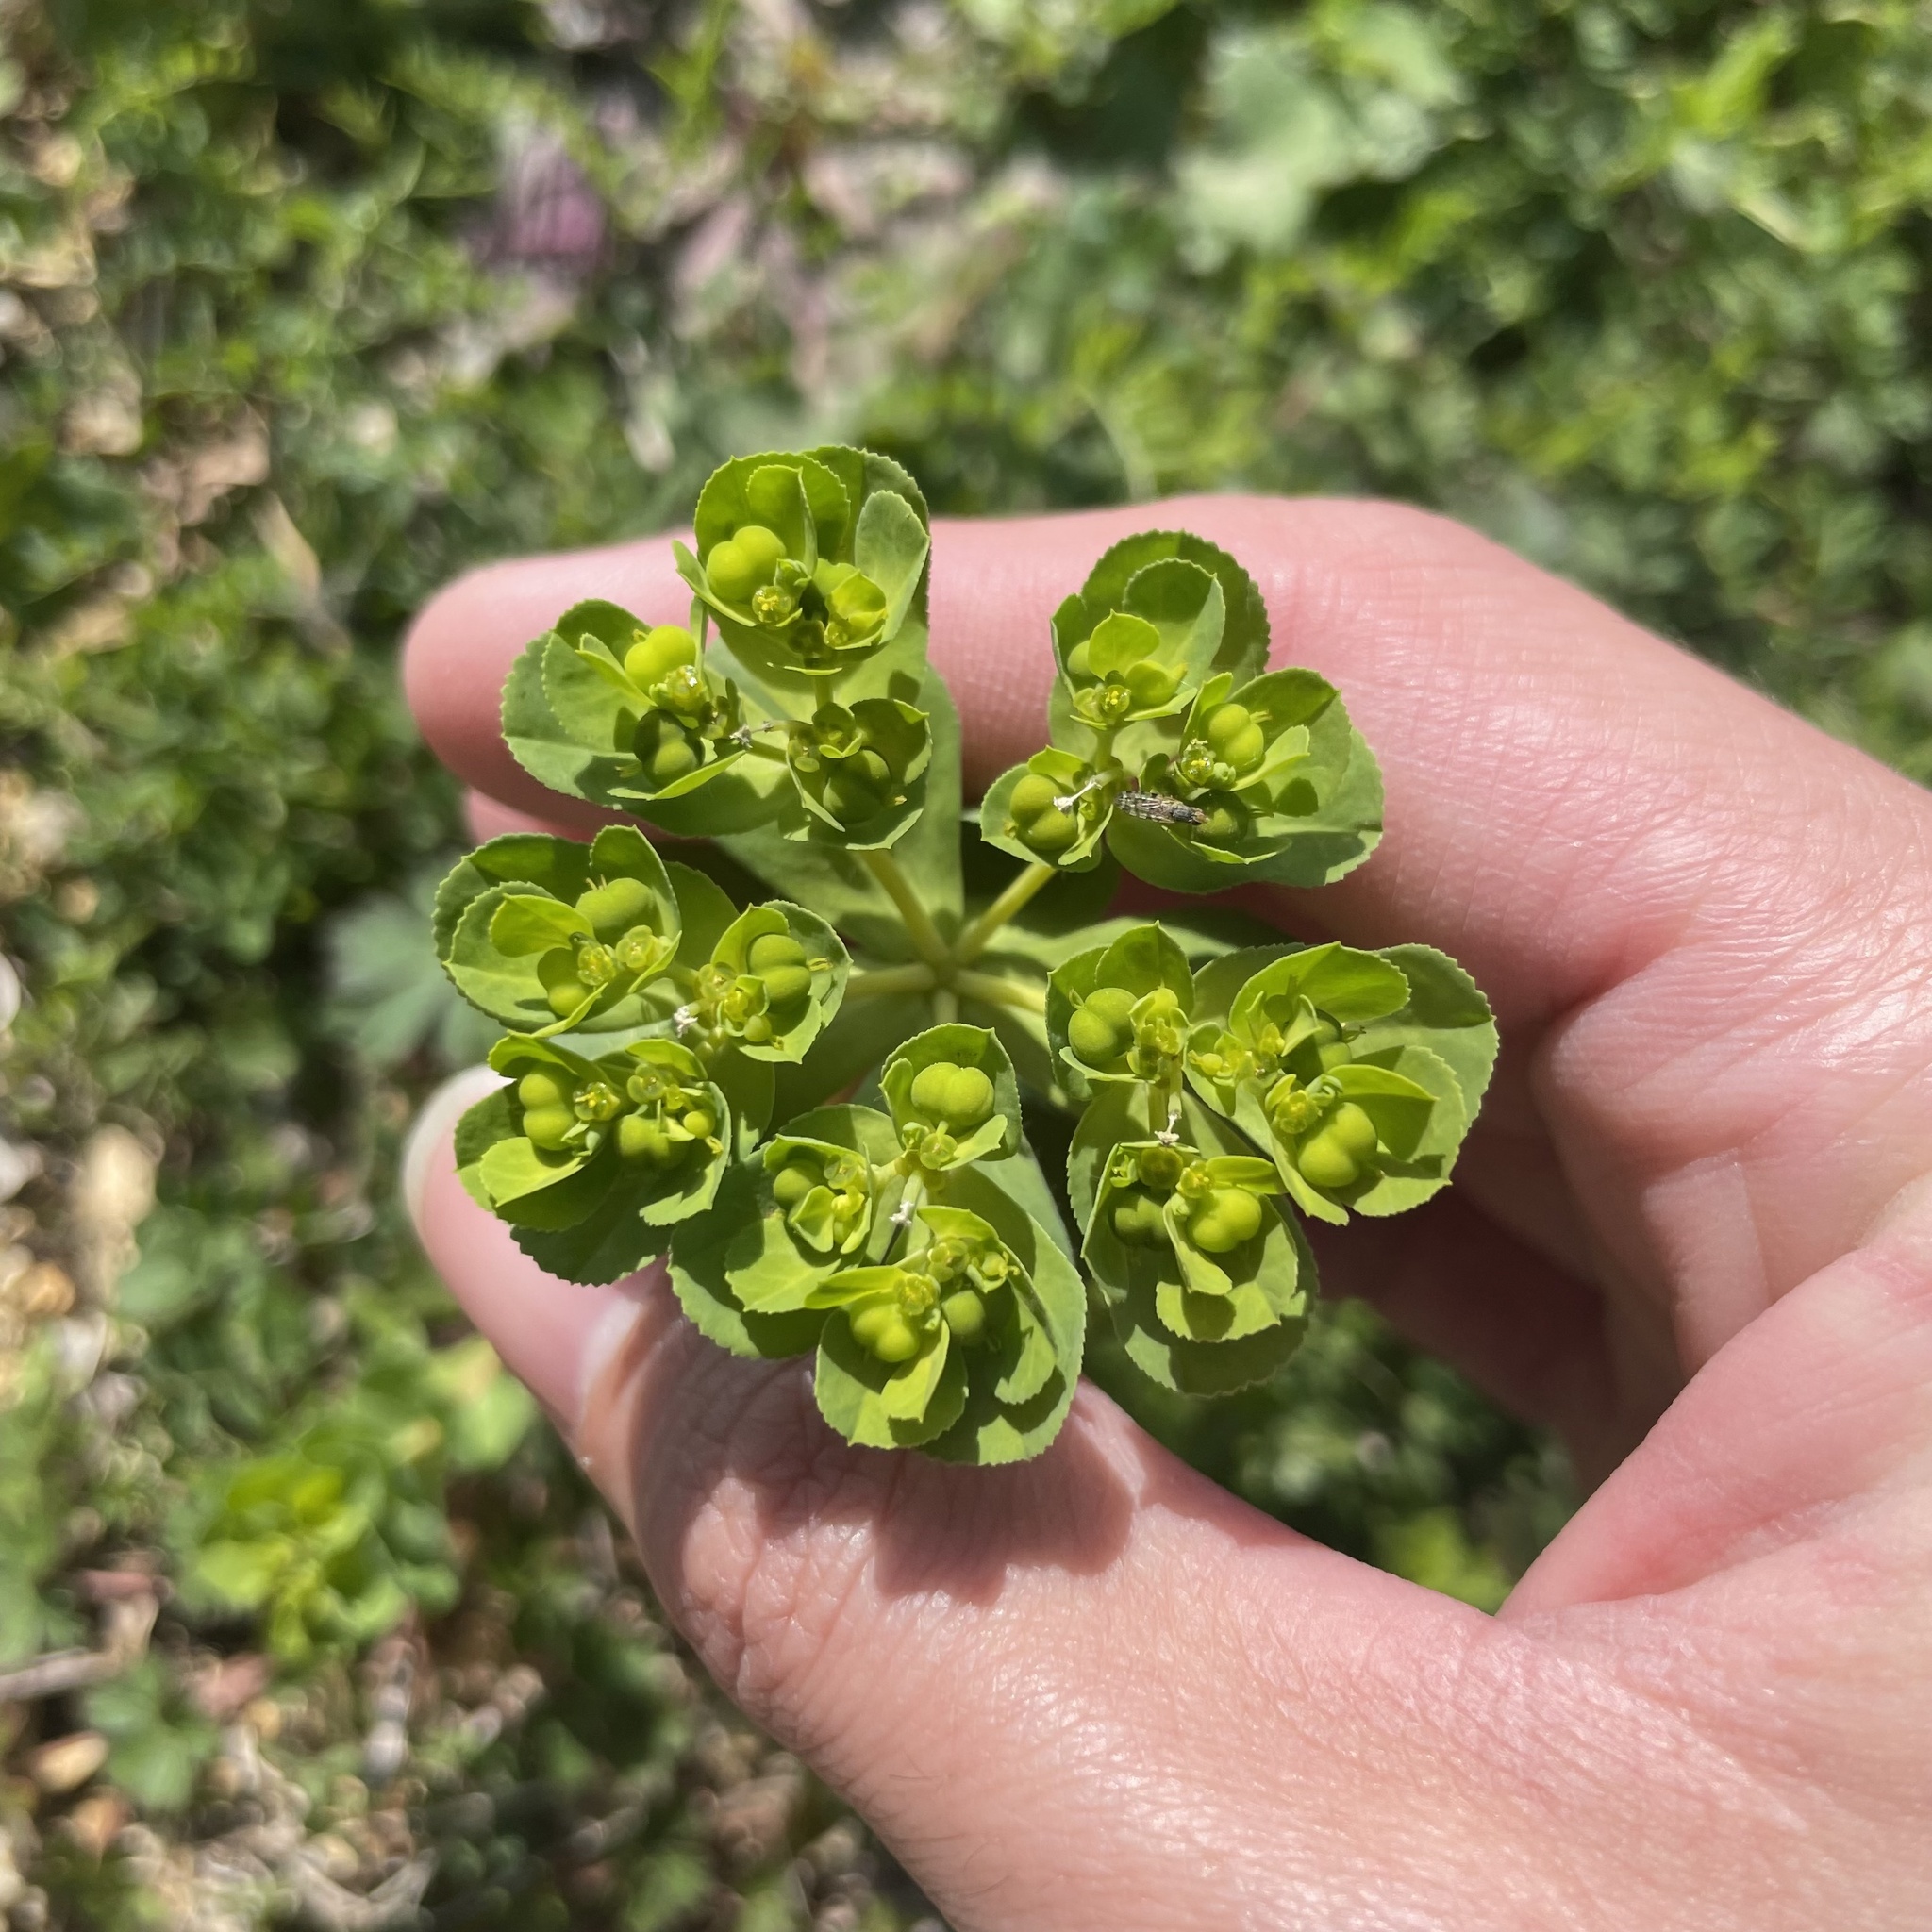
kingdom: Plantae
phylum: Tracheophyta
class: Magnoliopsida
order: Malpighiales
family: Euphorbiaceae
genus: Euphorbia
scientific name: Euphorbia helioscopia
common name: Sun spurge
